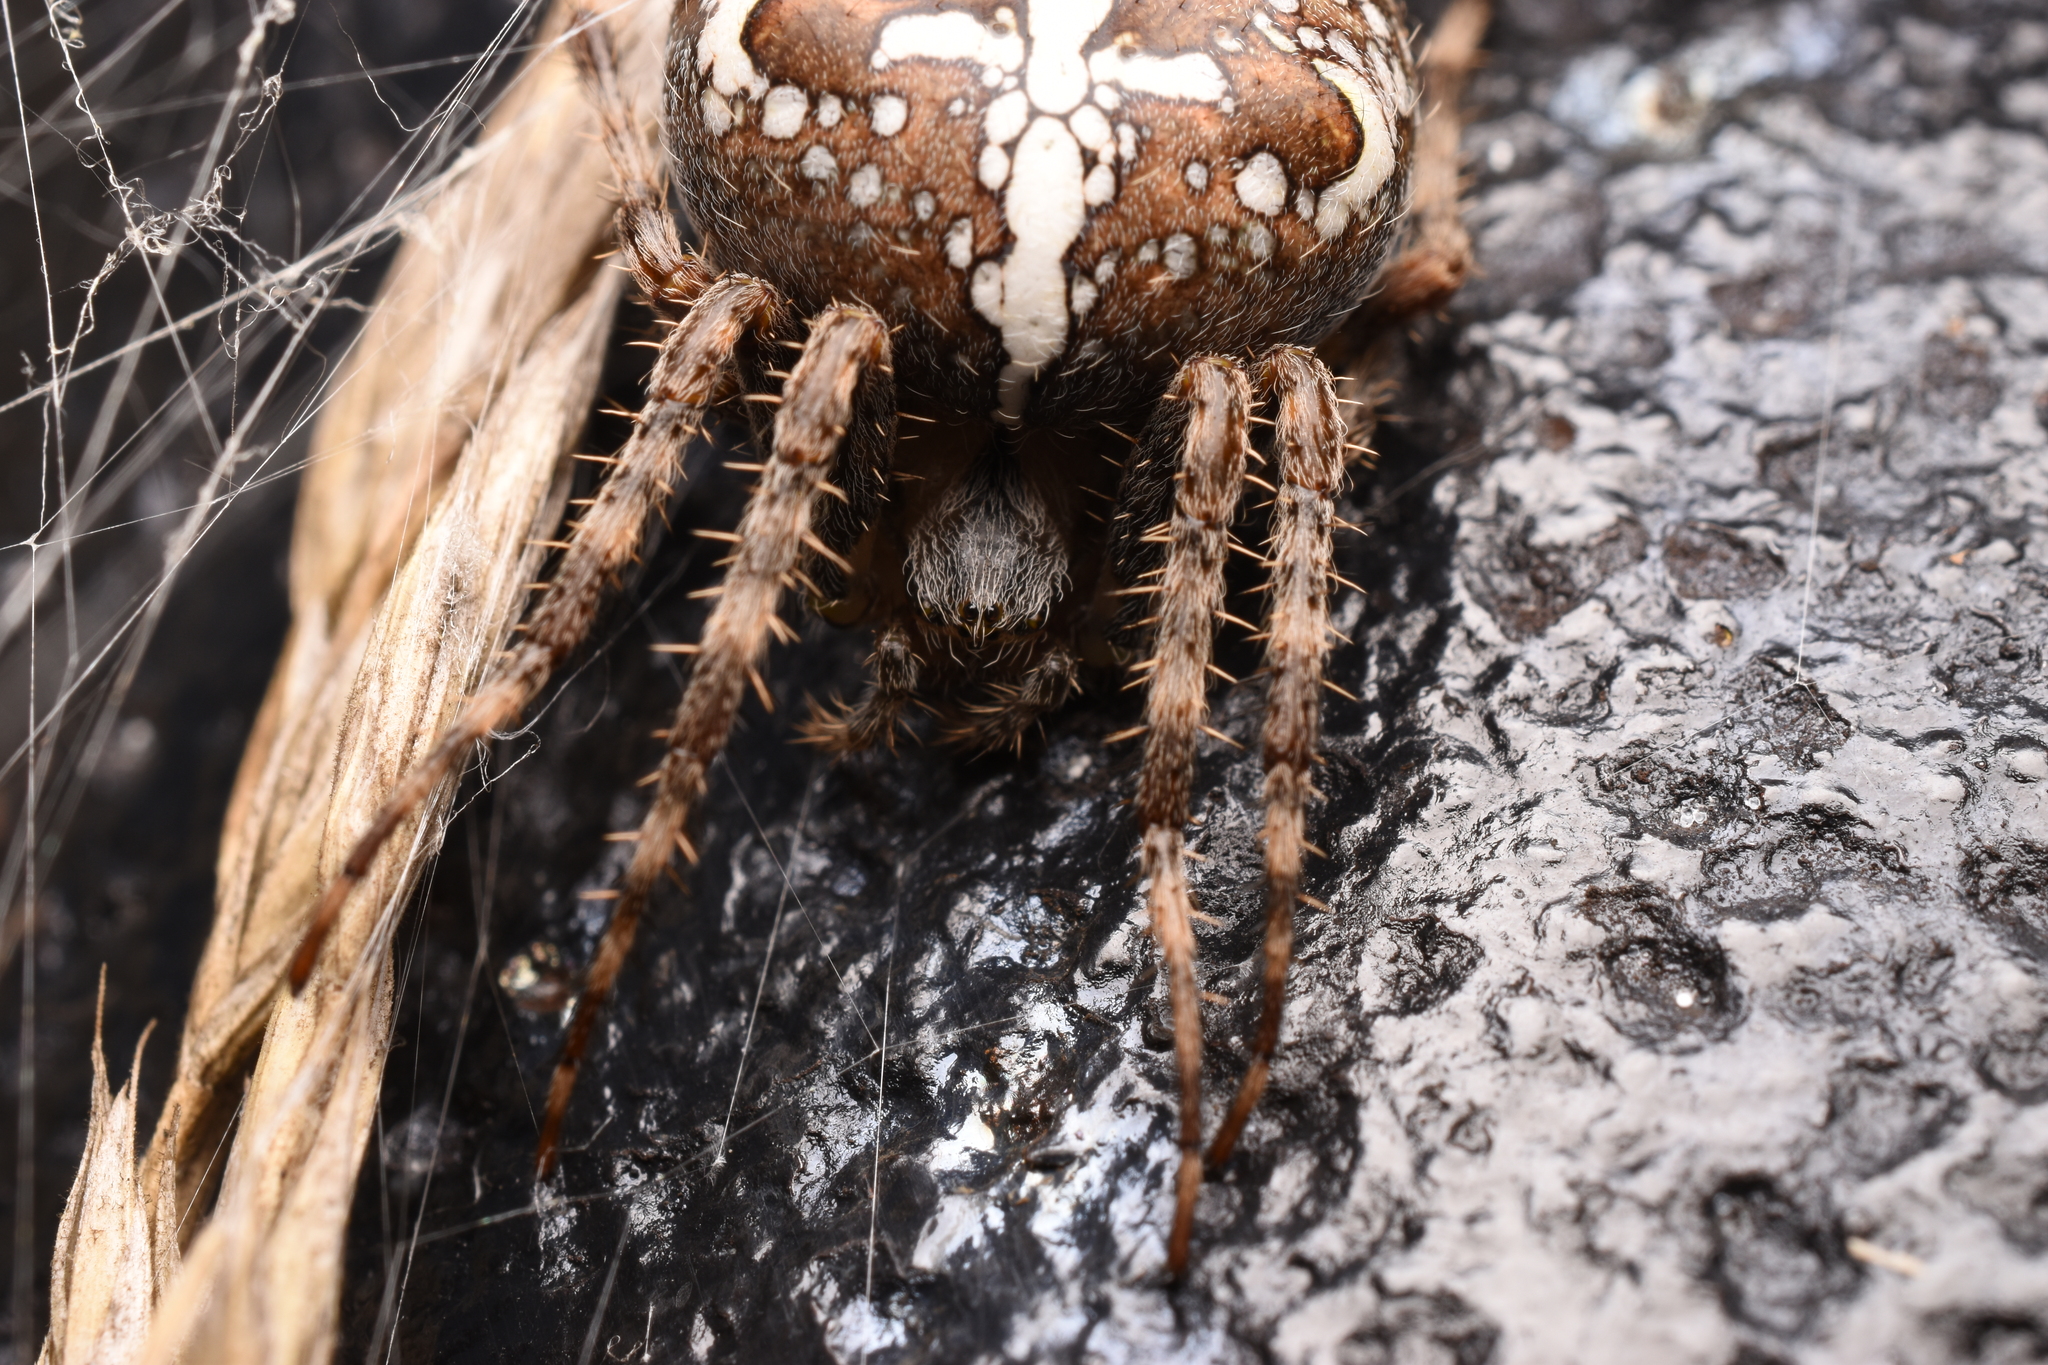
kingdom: Animalia
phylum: Arthropoda
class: Arachnida
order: Araneae
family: Araneidae
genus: Araneus
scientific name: Araneus diadematus
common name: Cross orbweaver
